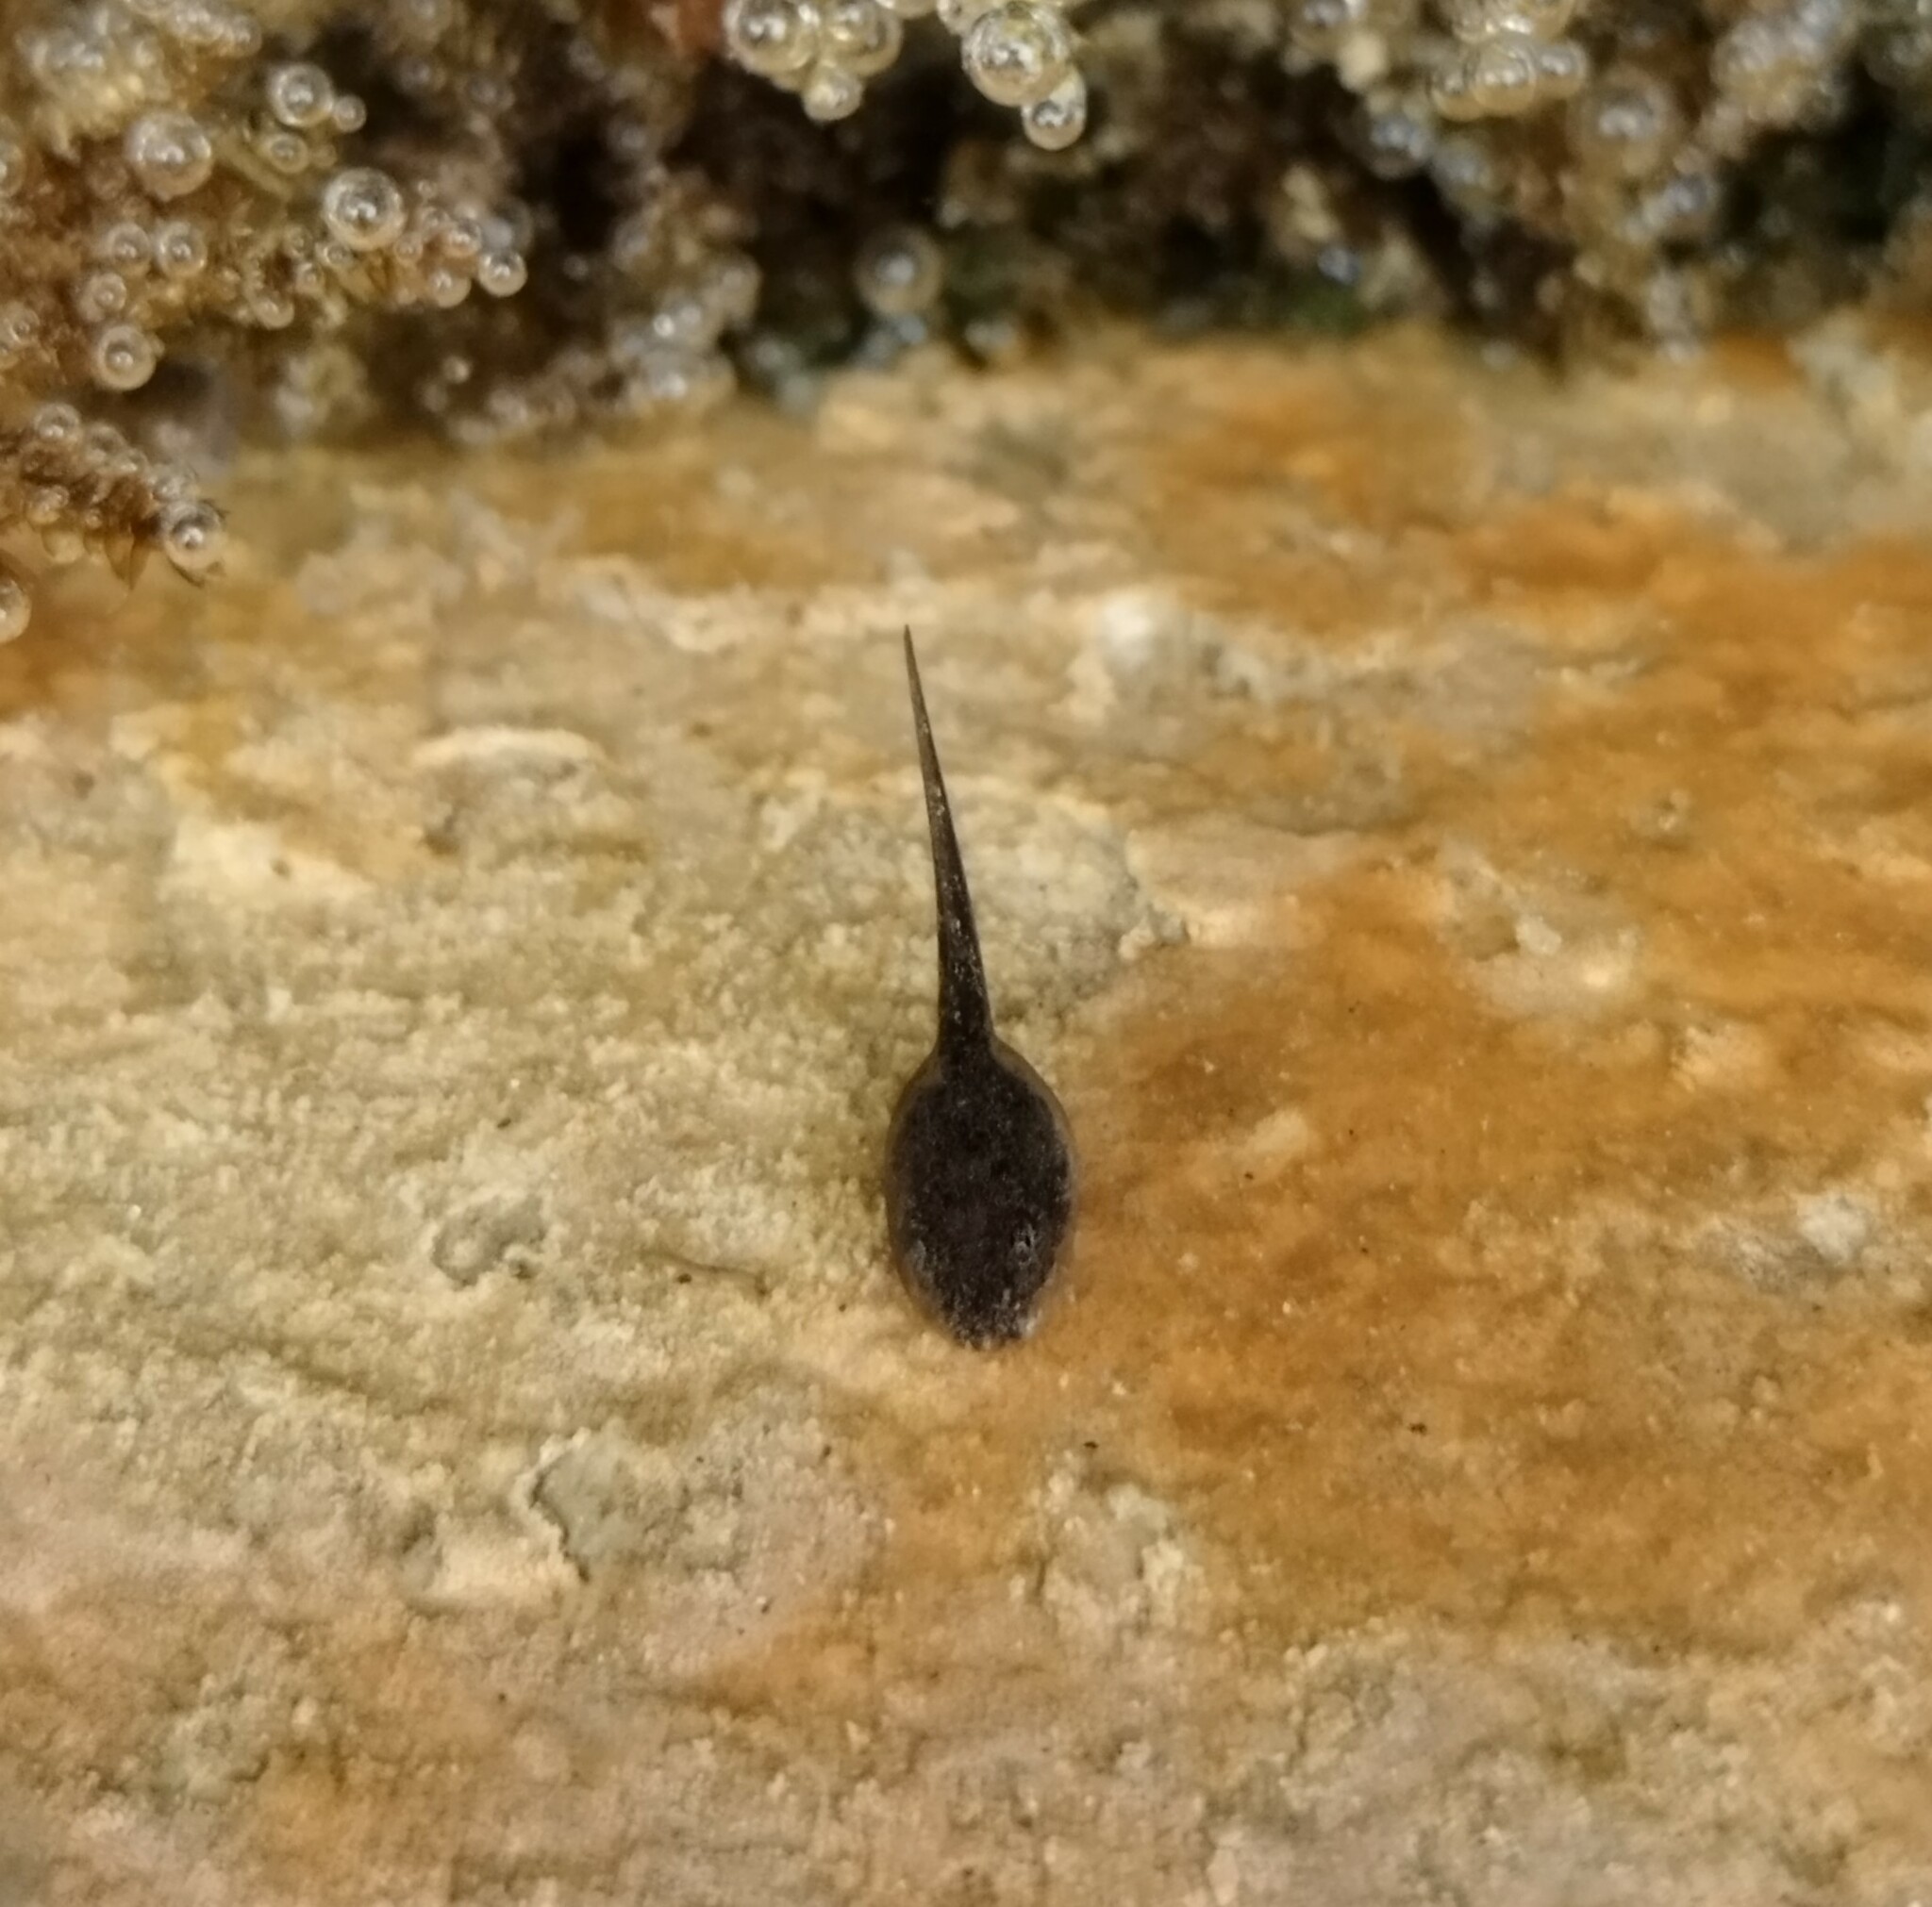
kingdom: Animalia
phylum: Chordata
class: Amphibia
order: Anura
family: Ranidae
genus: Rana
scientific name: Rana italica
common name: Italian stream frog
